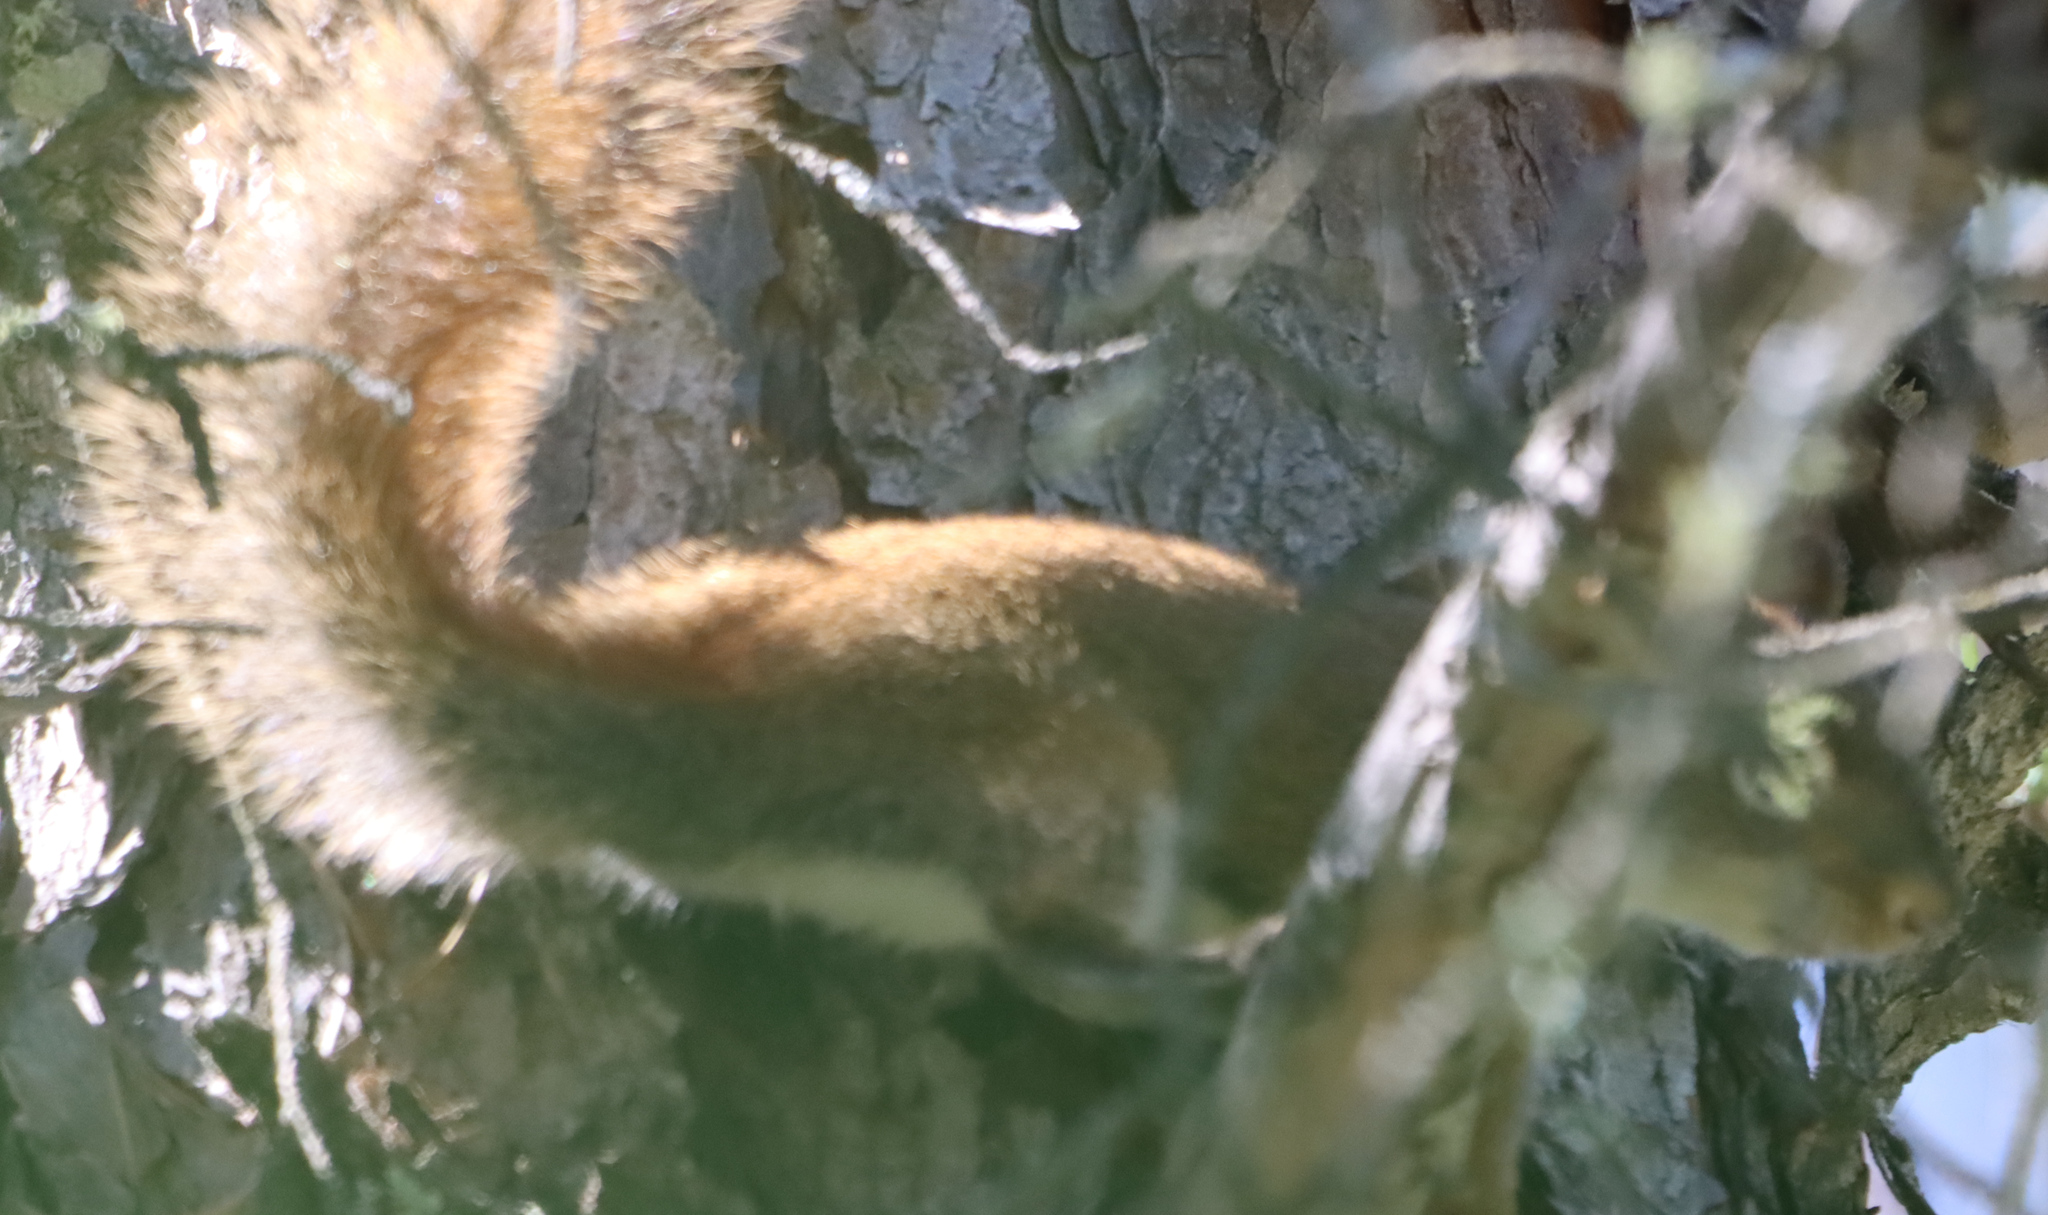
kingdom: Animalia
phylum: Chordata
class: Mammalia
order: Rodentia
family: Sciuridae
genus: Tamiasciurus
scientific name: Tamiasciurus hudsonicus
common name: Red squirrel
